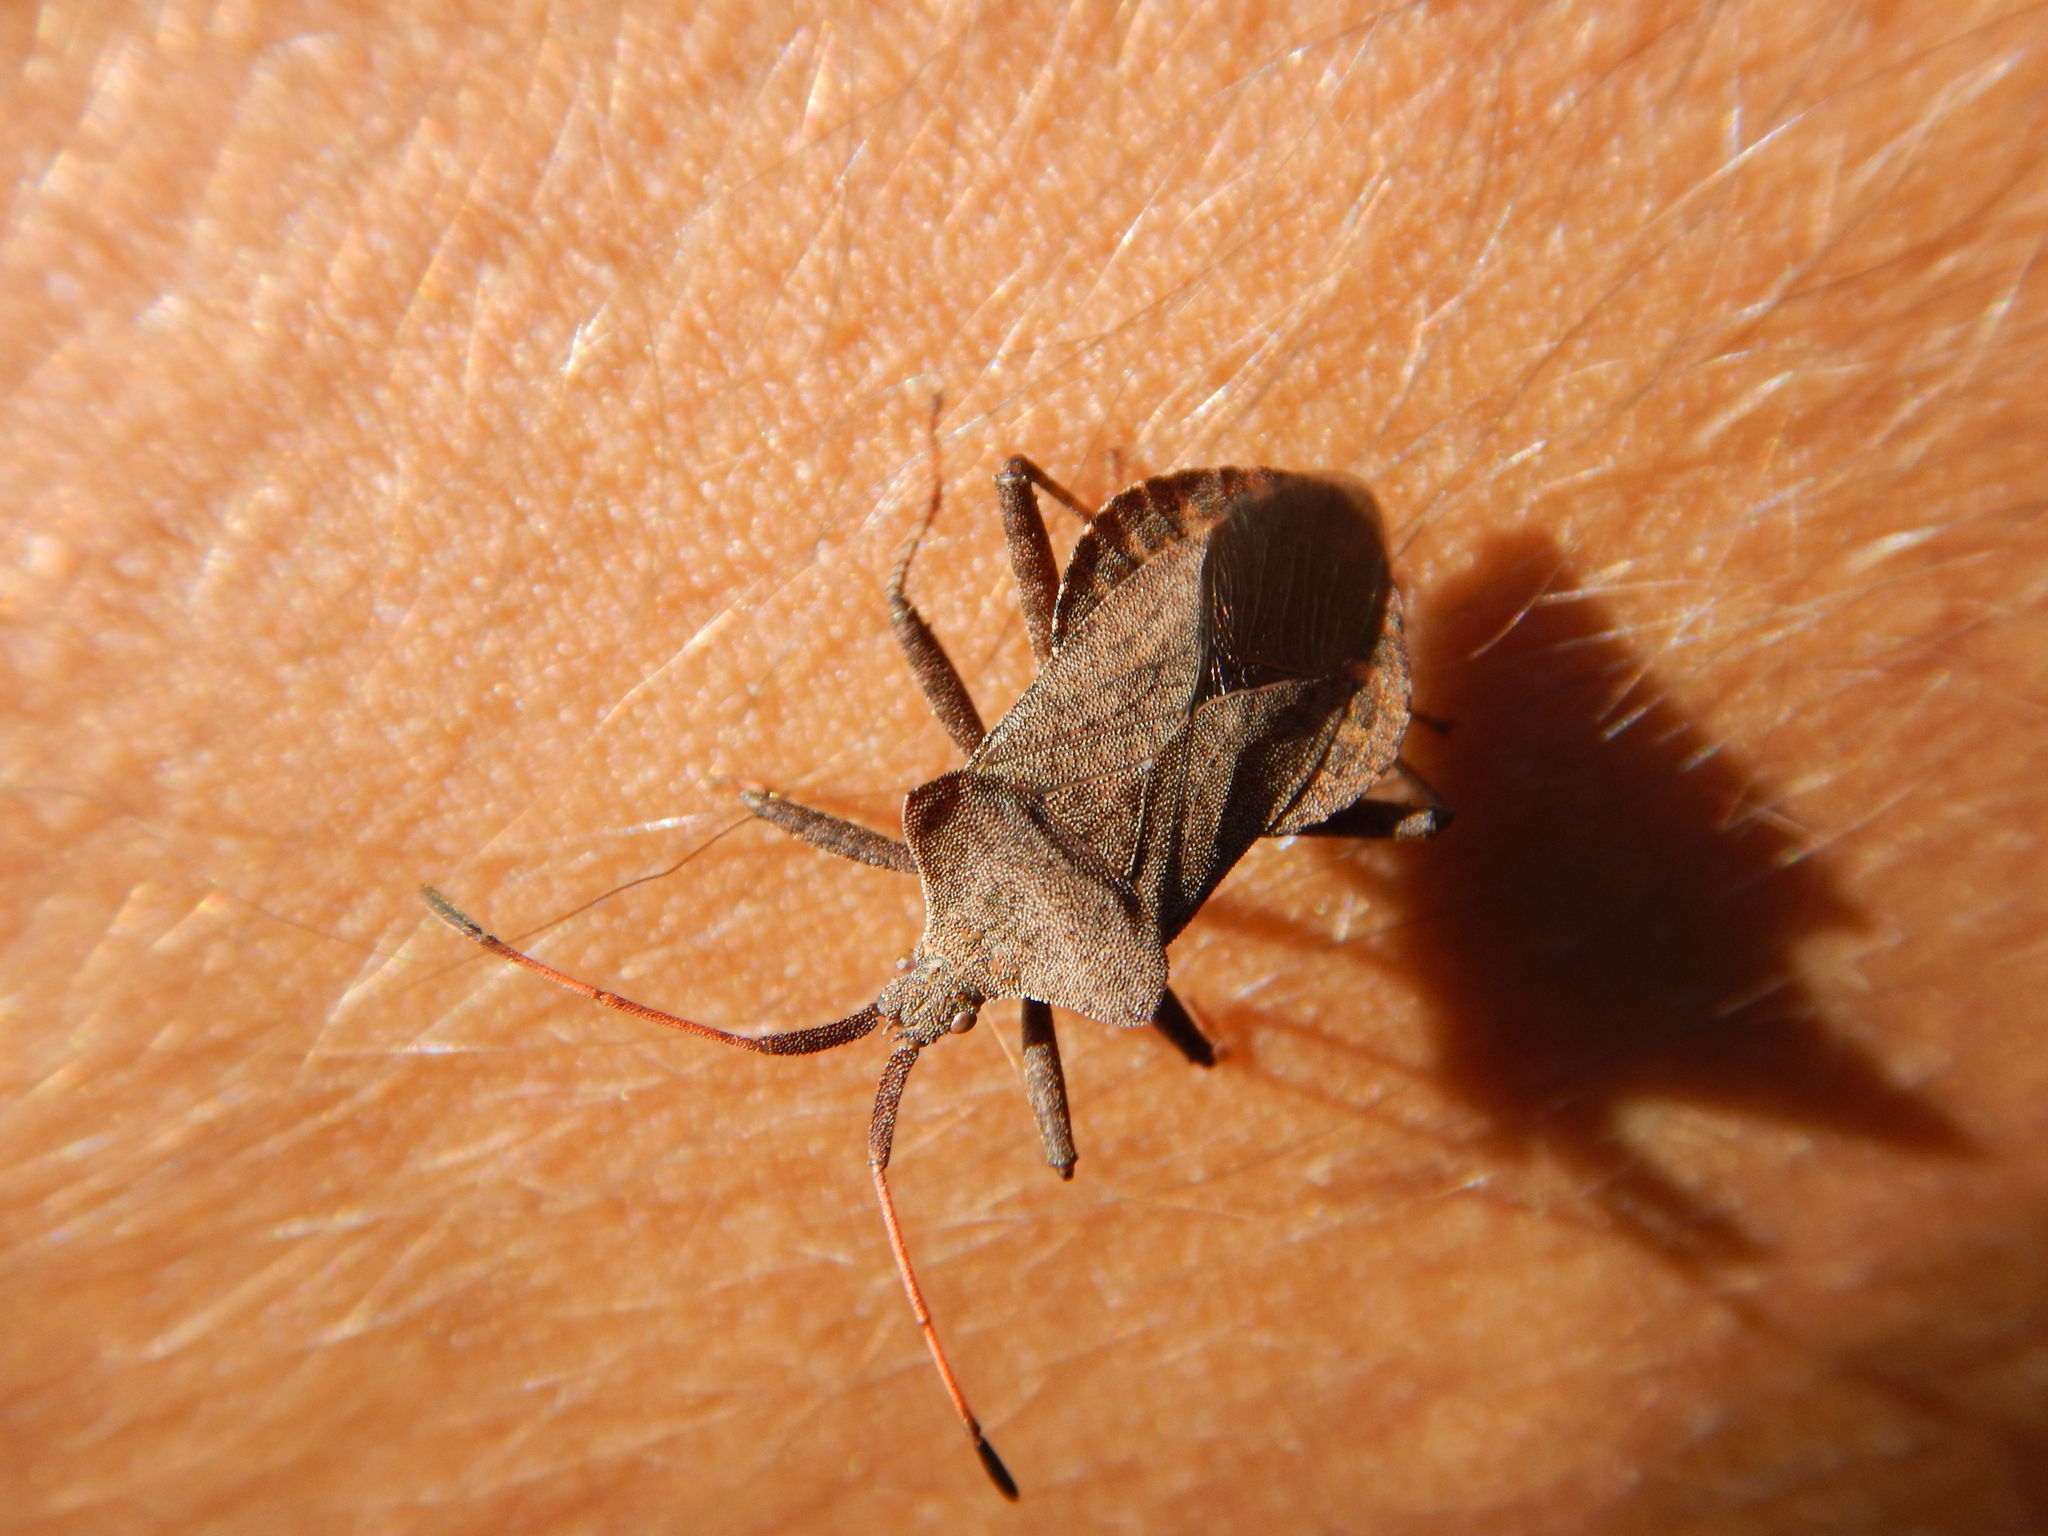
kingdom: Animalia
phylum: Arthropoda
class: Insecta
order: Hemiptera
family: Coreidae
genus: Coreus
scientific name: Coreus marginatus
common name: Dock bug
